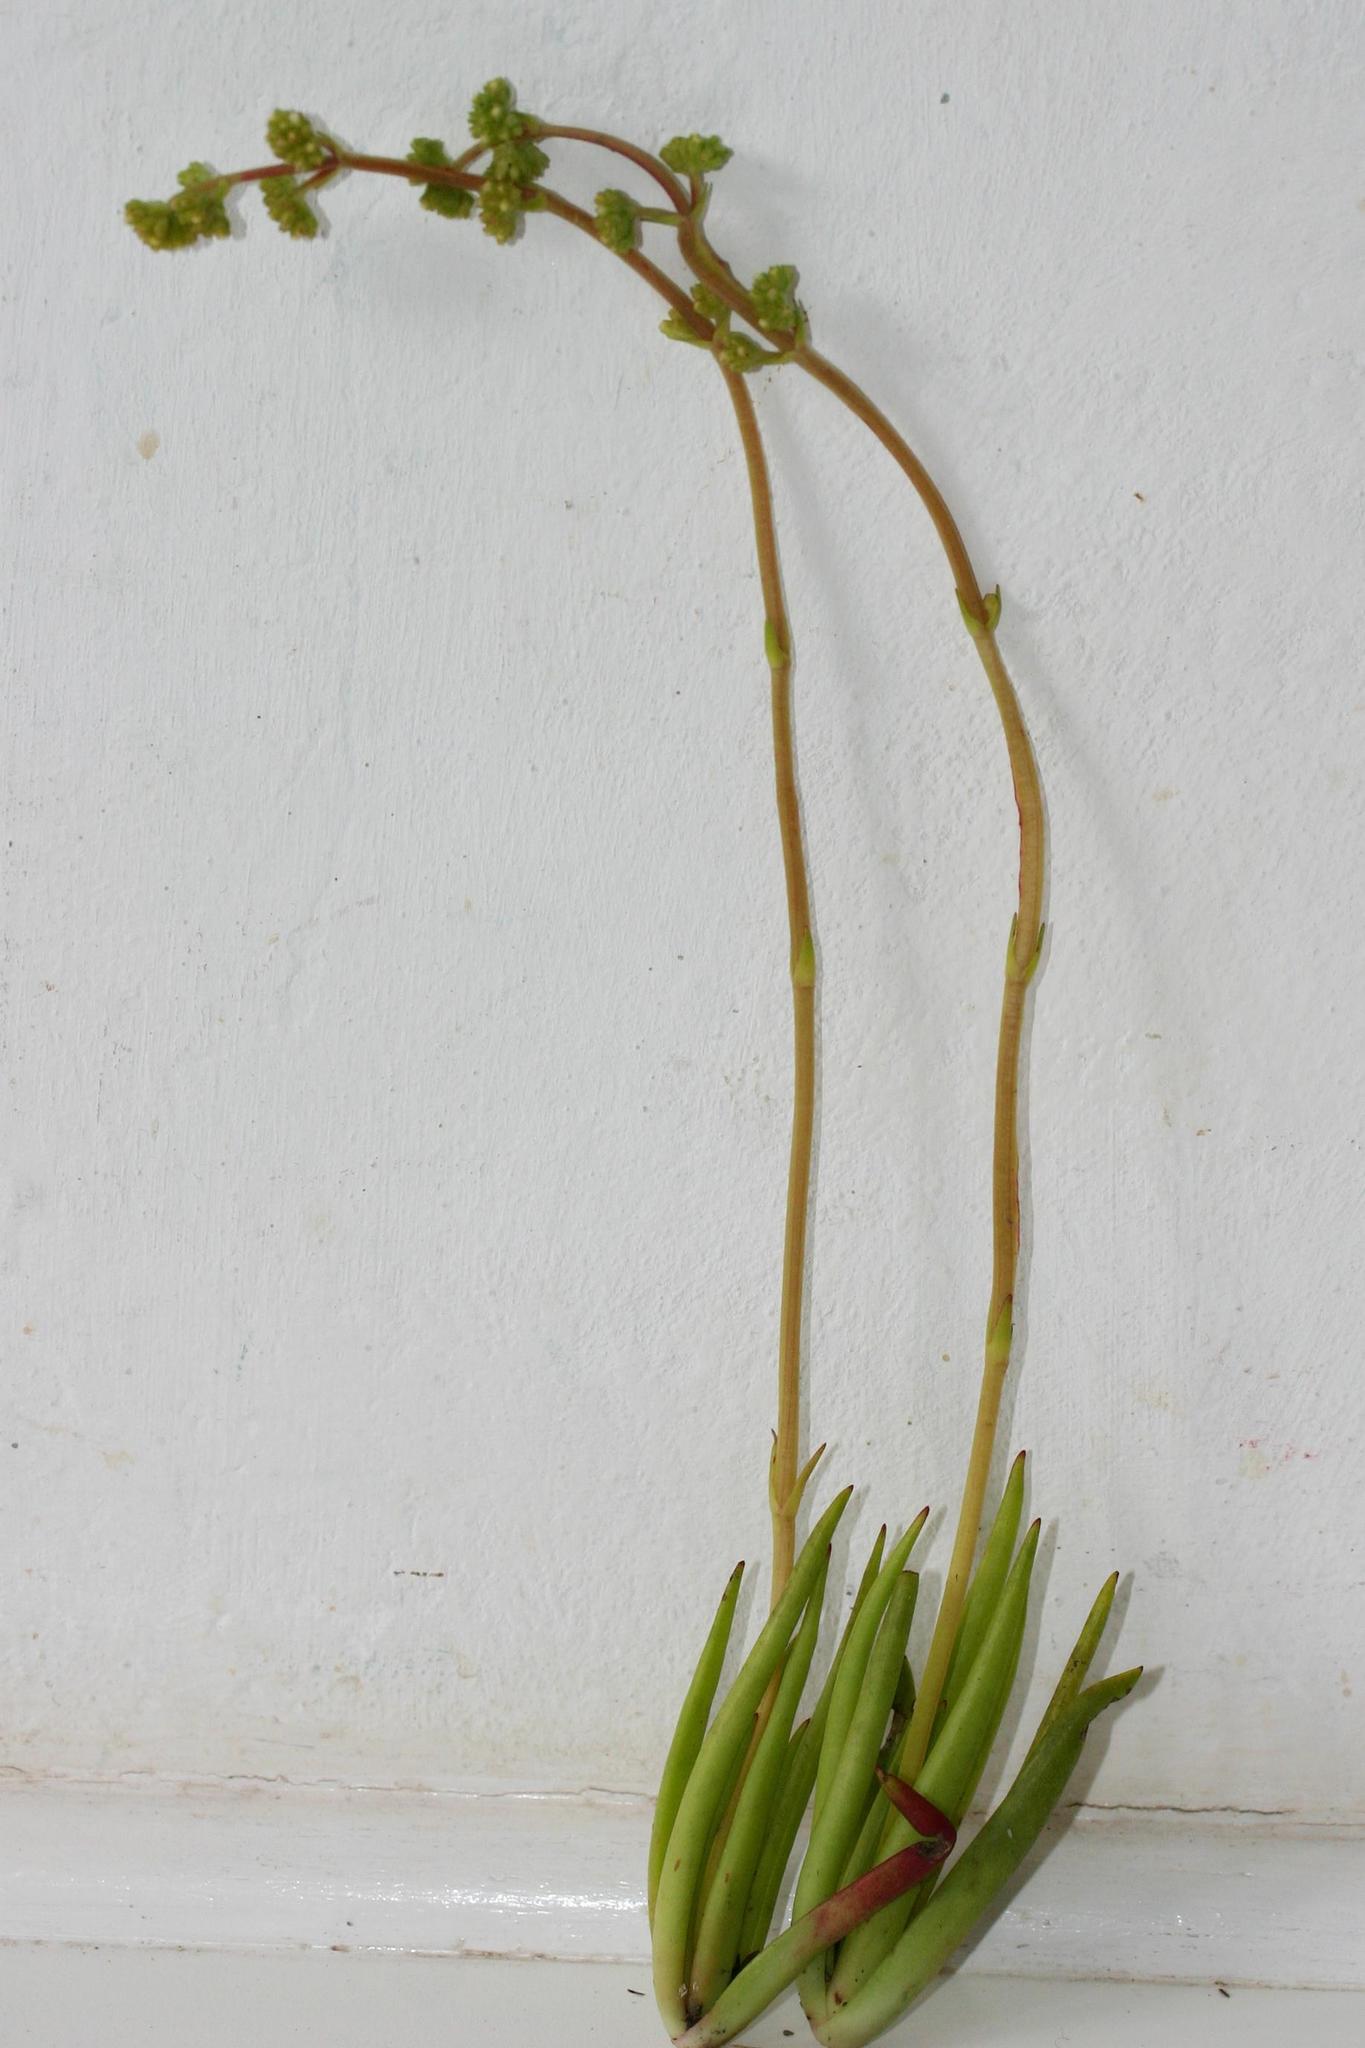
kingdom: Plantae
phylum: Tracheophyta
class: Magnoliopsida
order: Saxifragales
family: Crassulaceae
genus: Crassula
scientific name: Crassula nudicaulis
